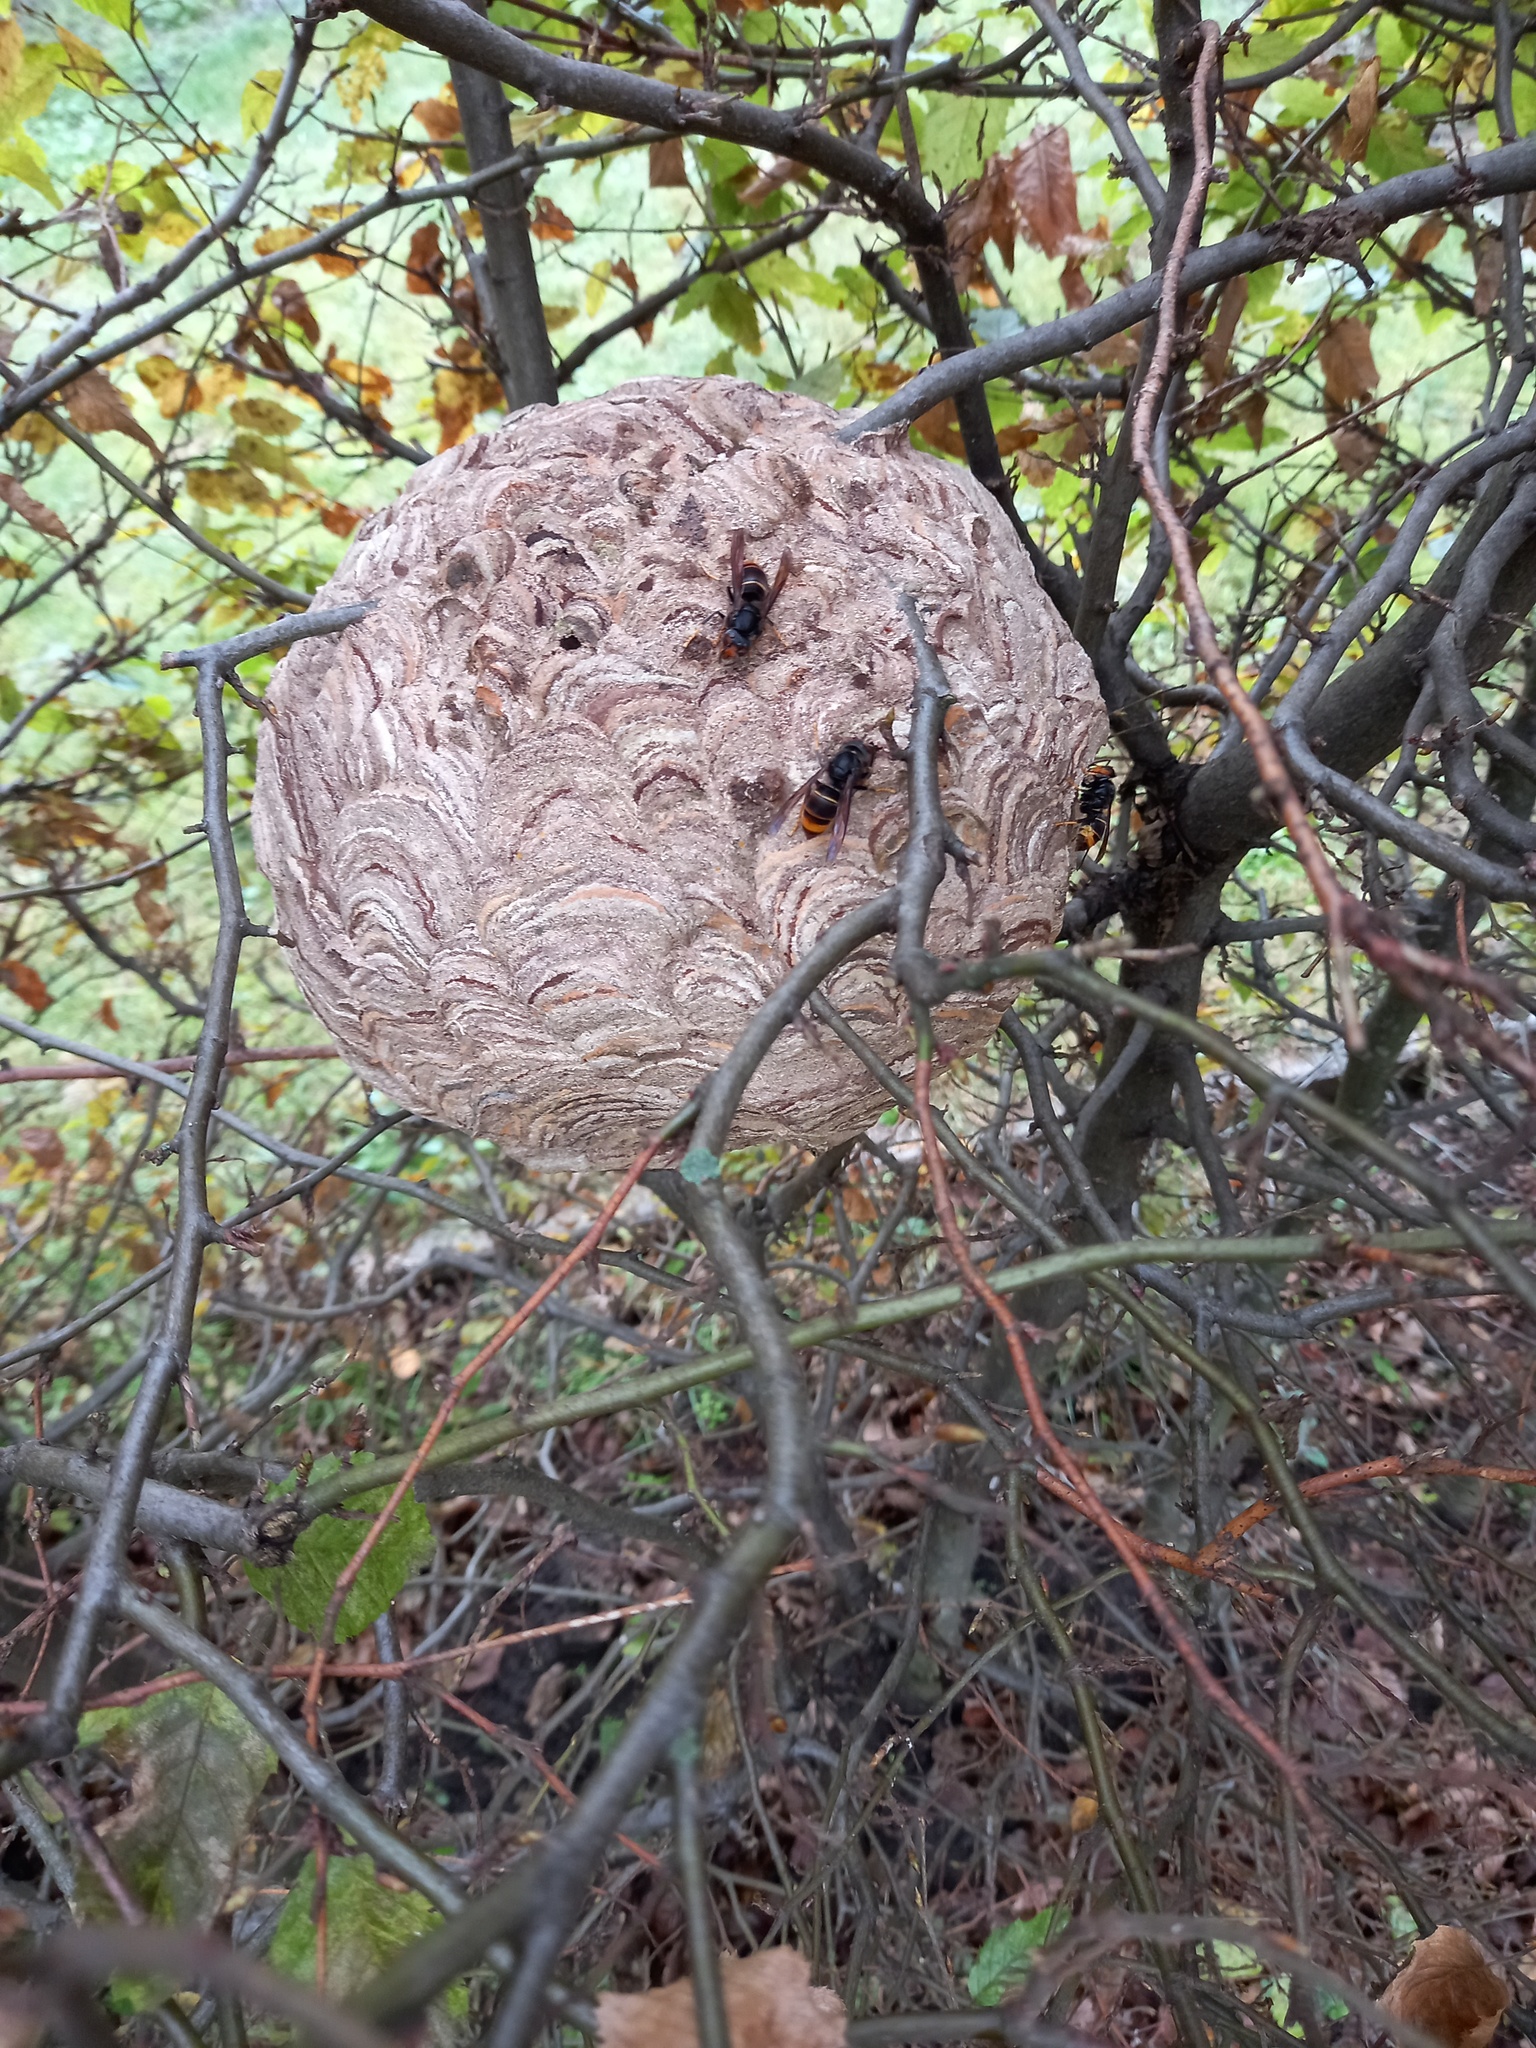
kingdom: Animalia
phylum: Arthropoda
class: Insecta
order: Hymenoptera
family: Vespidae
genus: Vespa
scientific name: Vespa velutina
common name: Asian hornet
